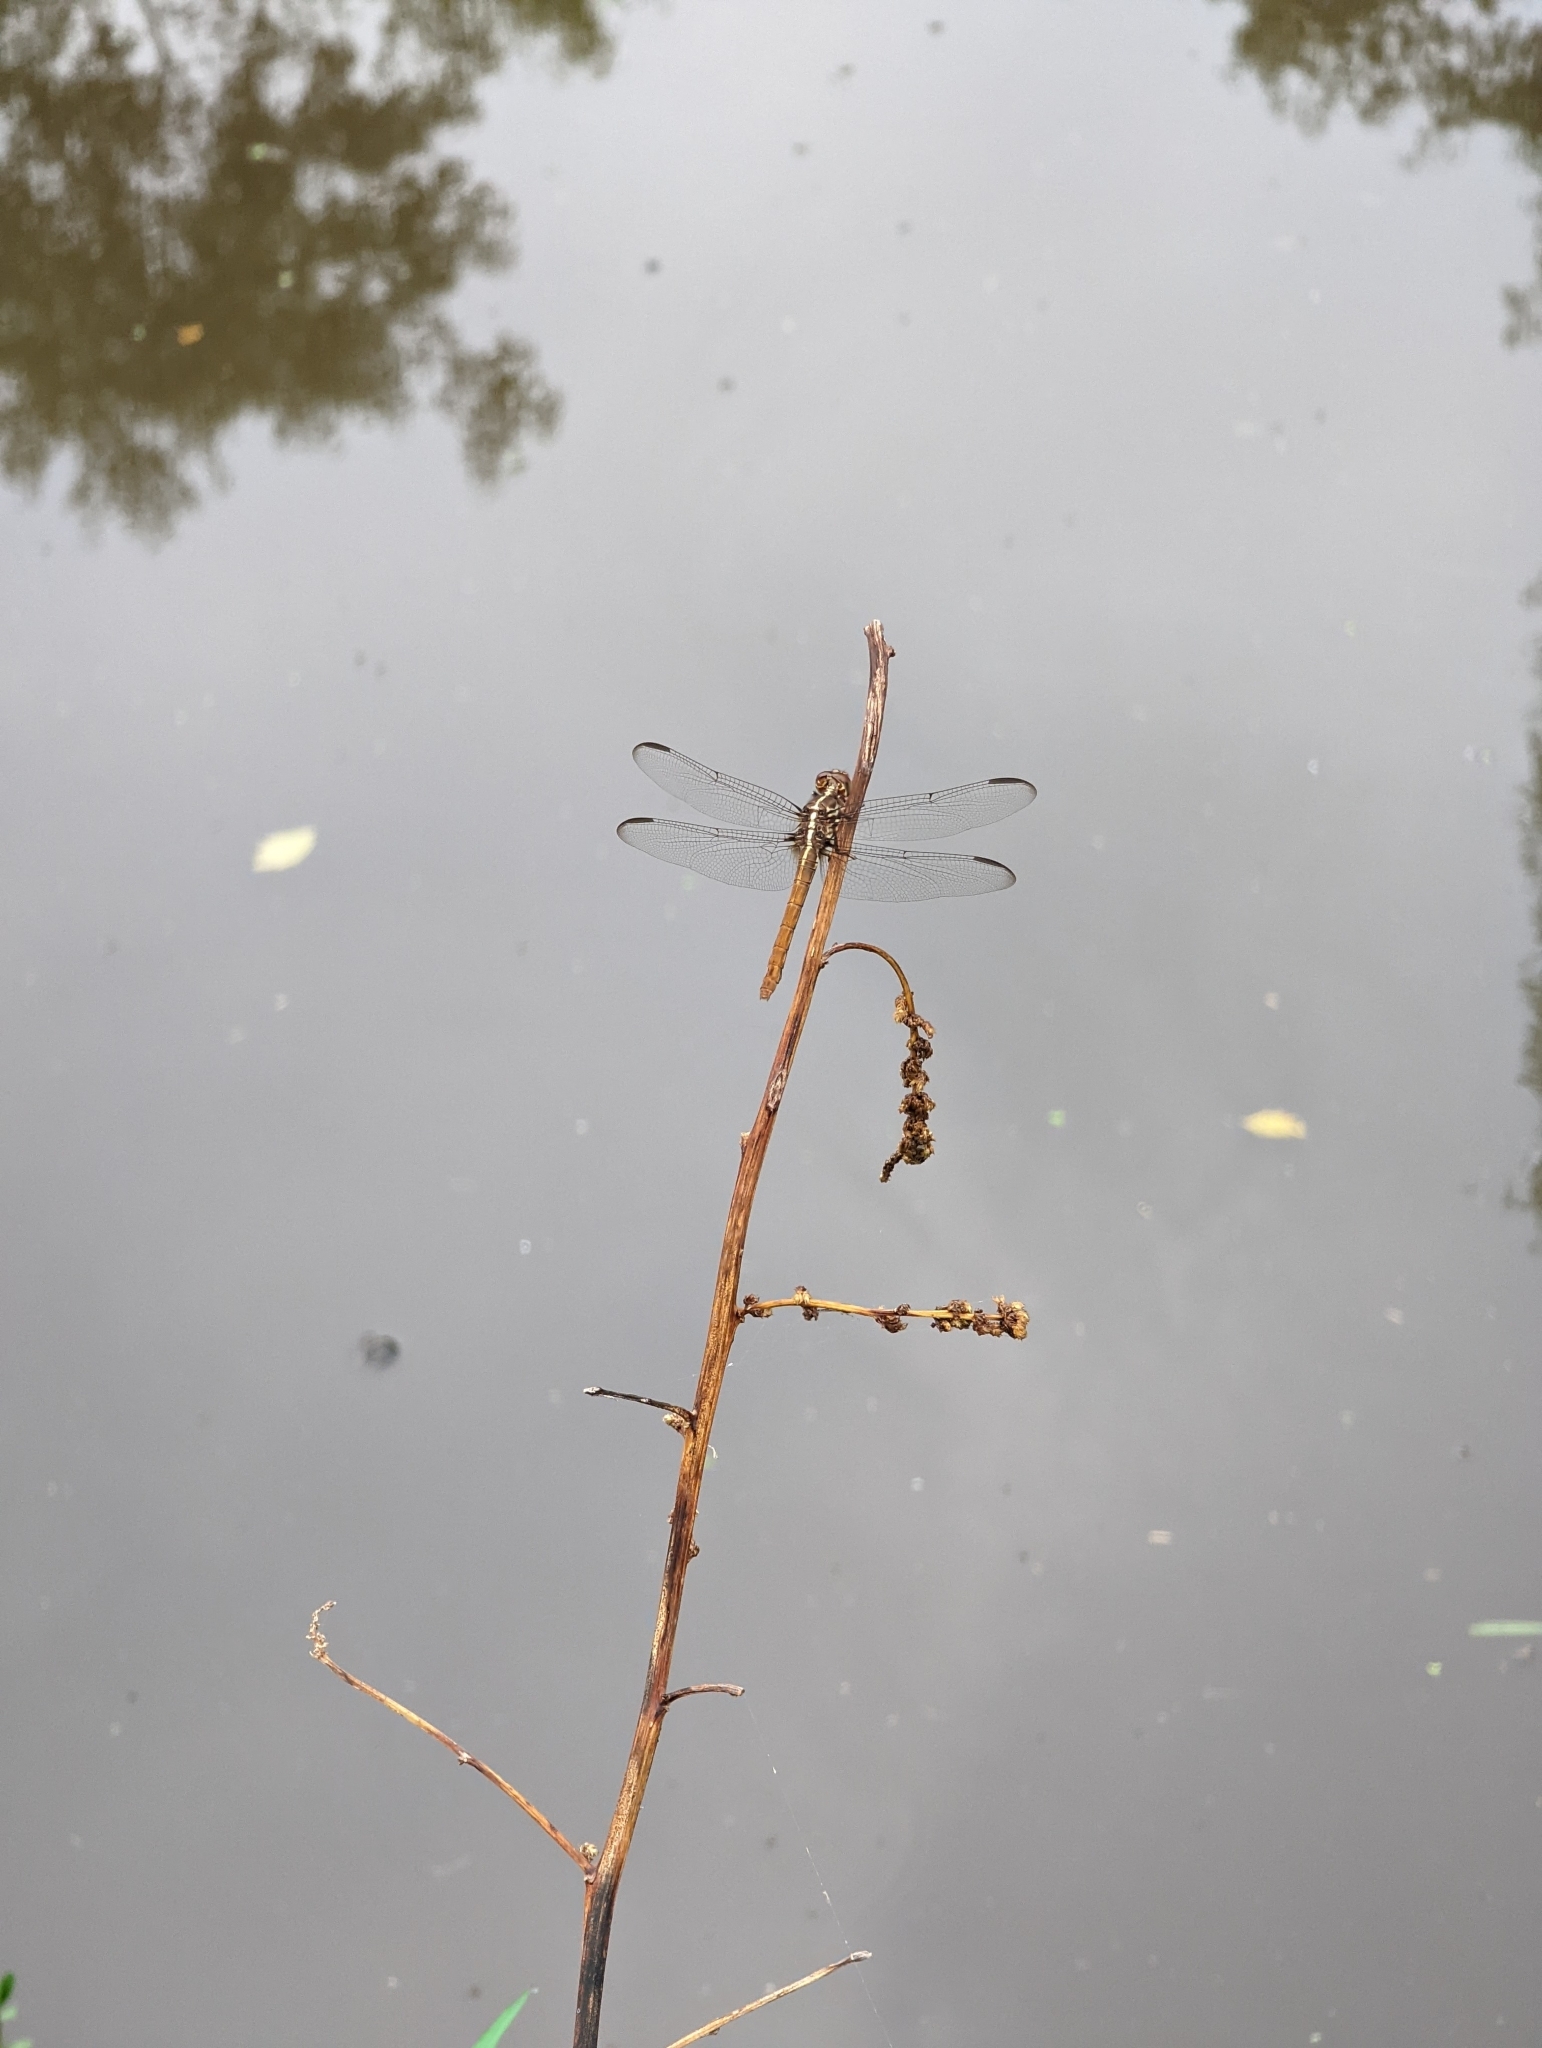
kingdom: Animalia
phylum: Arthropoda
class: Insecta
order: Odonata
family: Libellulidae
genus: Orthemis
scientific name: Orthemis ferruginea
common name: Roseate skimmer
